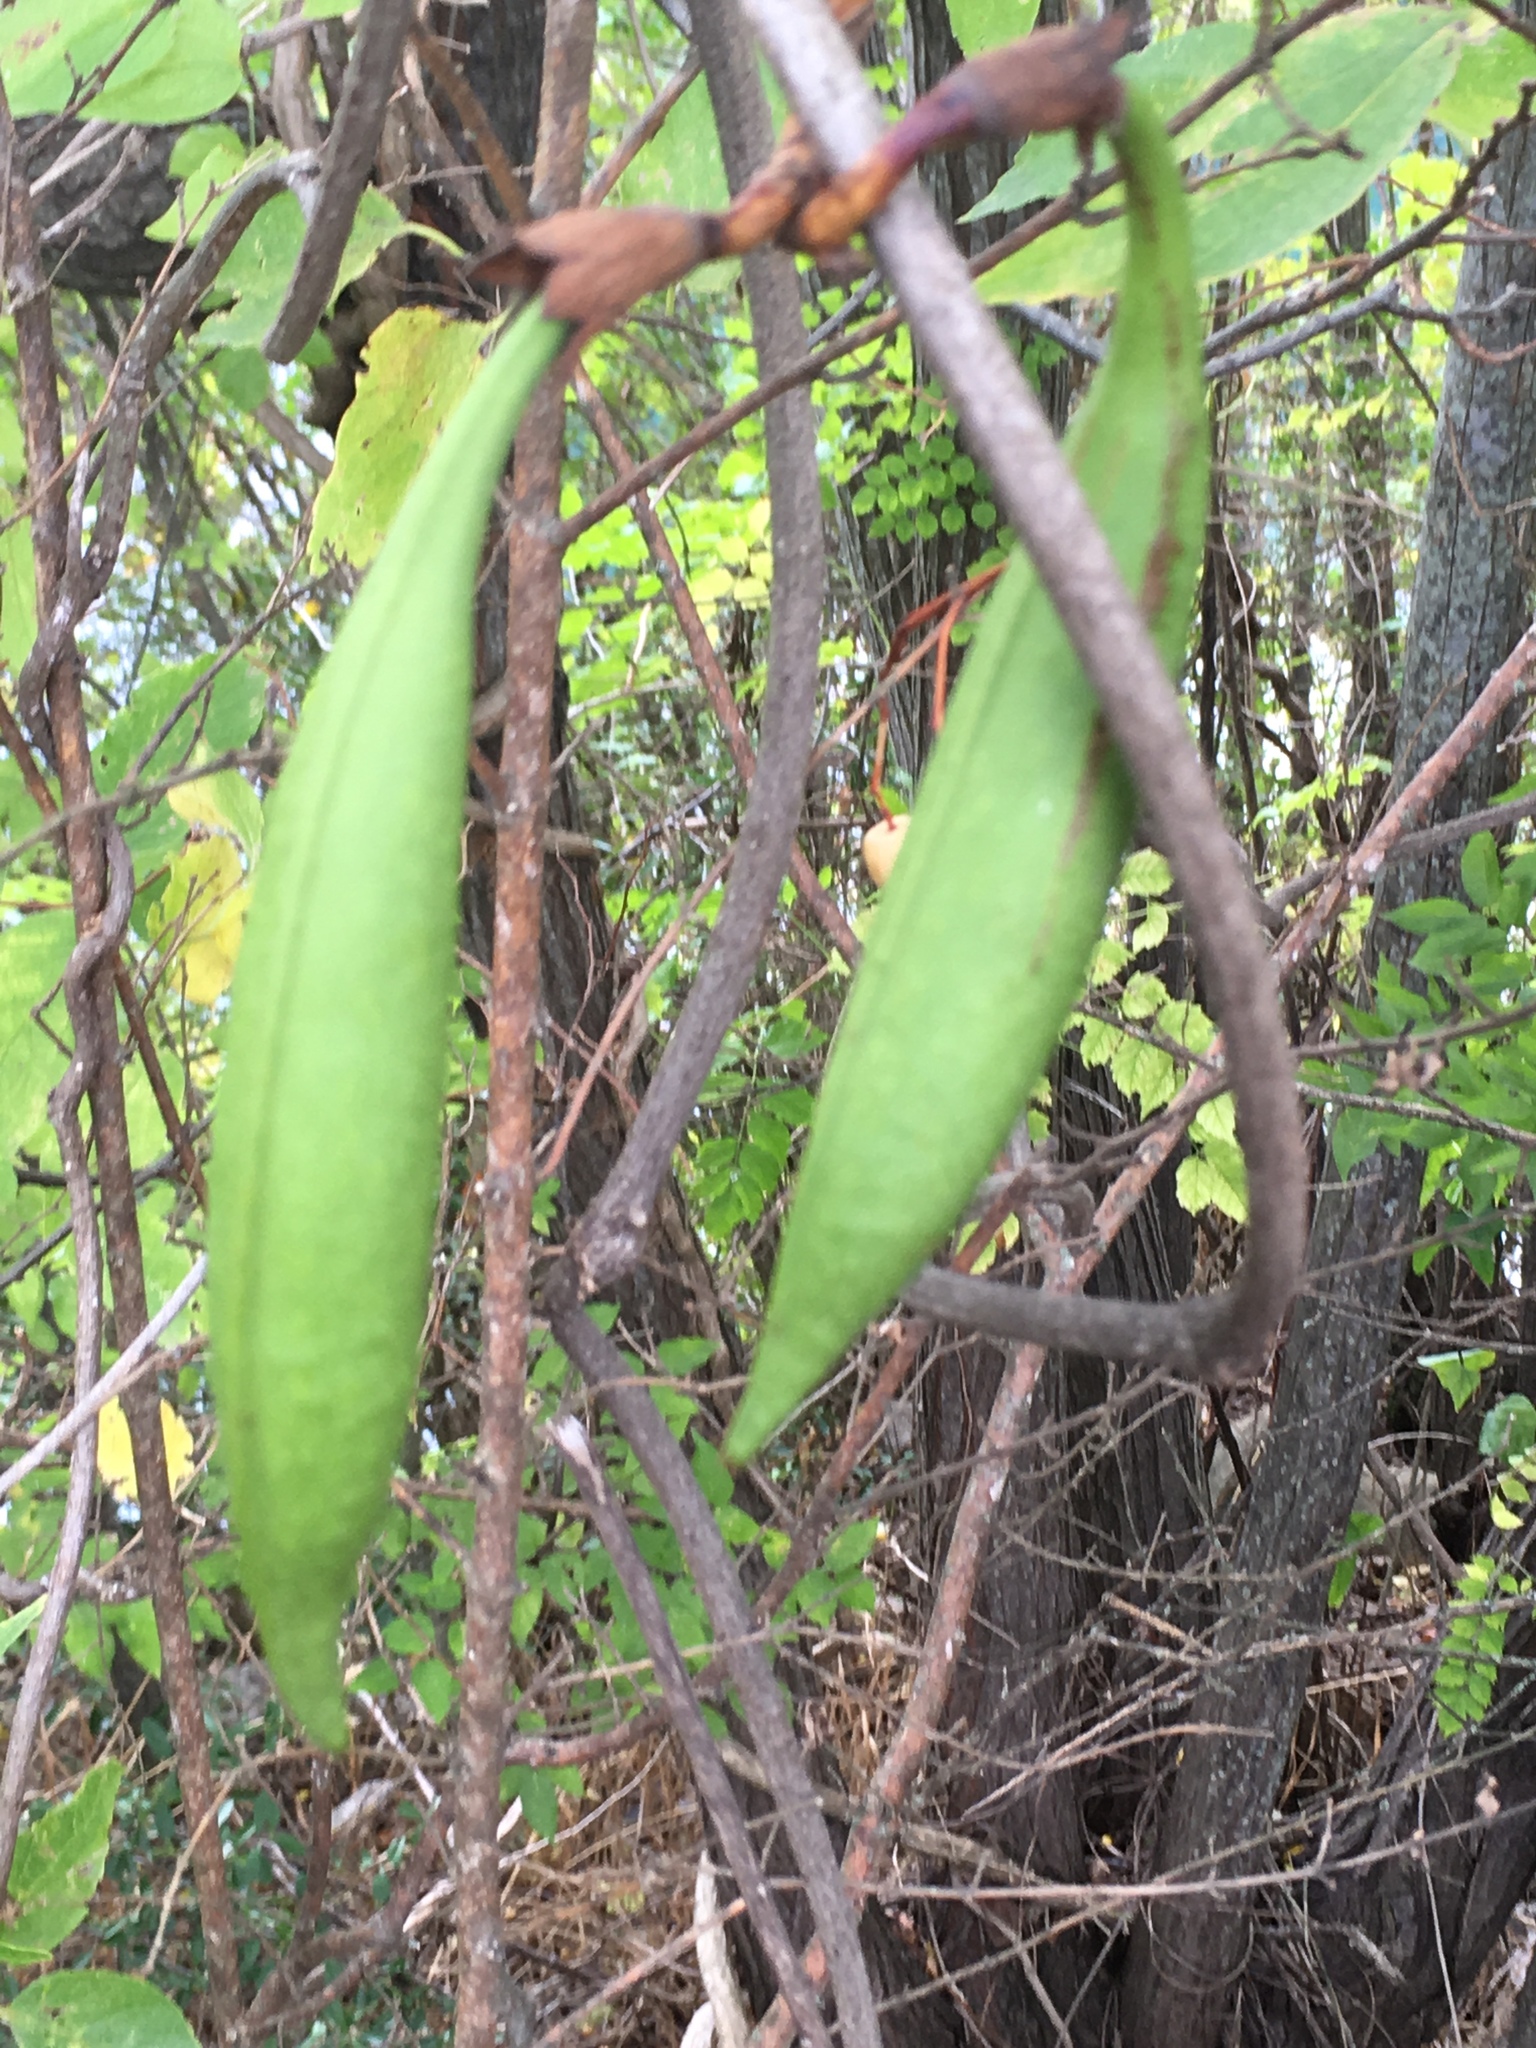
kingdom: Plantae
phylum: Tracheophyta
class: Magnoliopsida
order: Lamiales
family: Bignoniaceae
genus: Campsis
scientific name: Campsis radicans
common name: Trumpet-creeper
